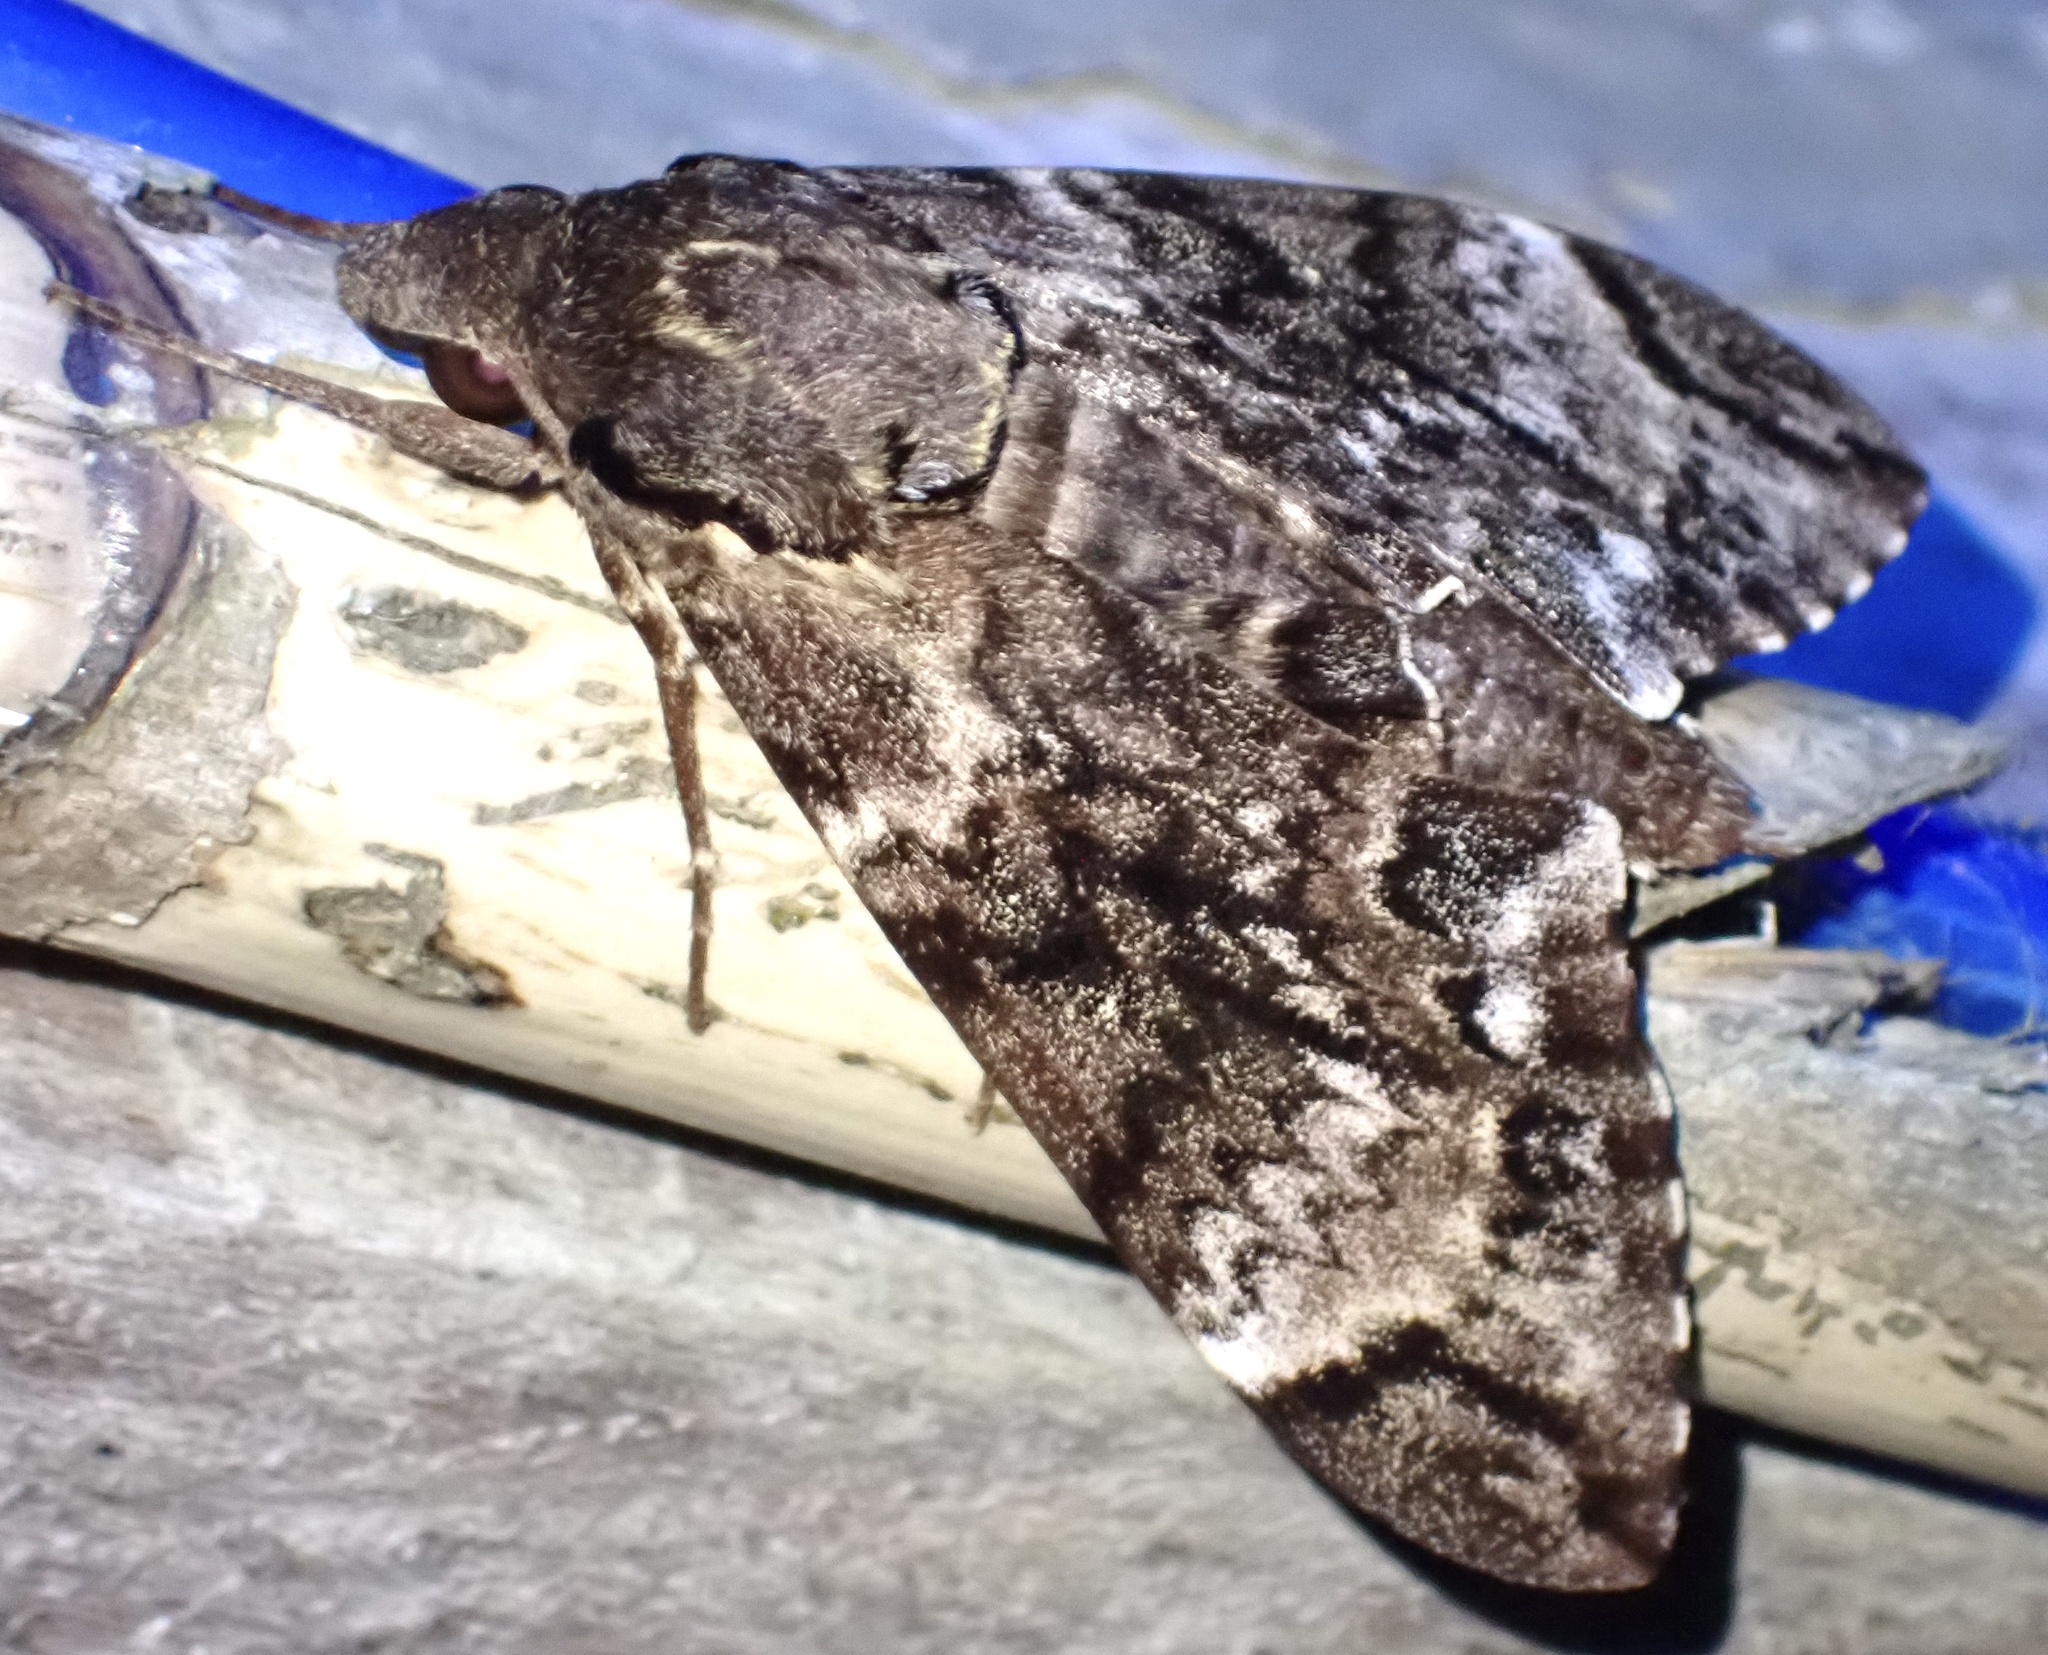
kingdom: Animalia
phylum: Arthropoda
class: Insecta
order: Lepidoptera
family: Sphingidae
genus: Psilogramma
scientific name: Psilogramma menephron
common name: Gray hawk moth
